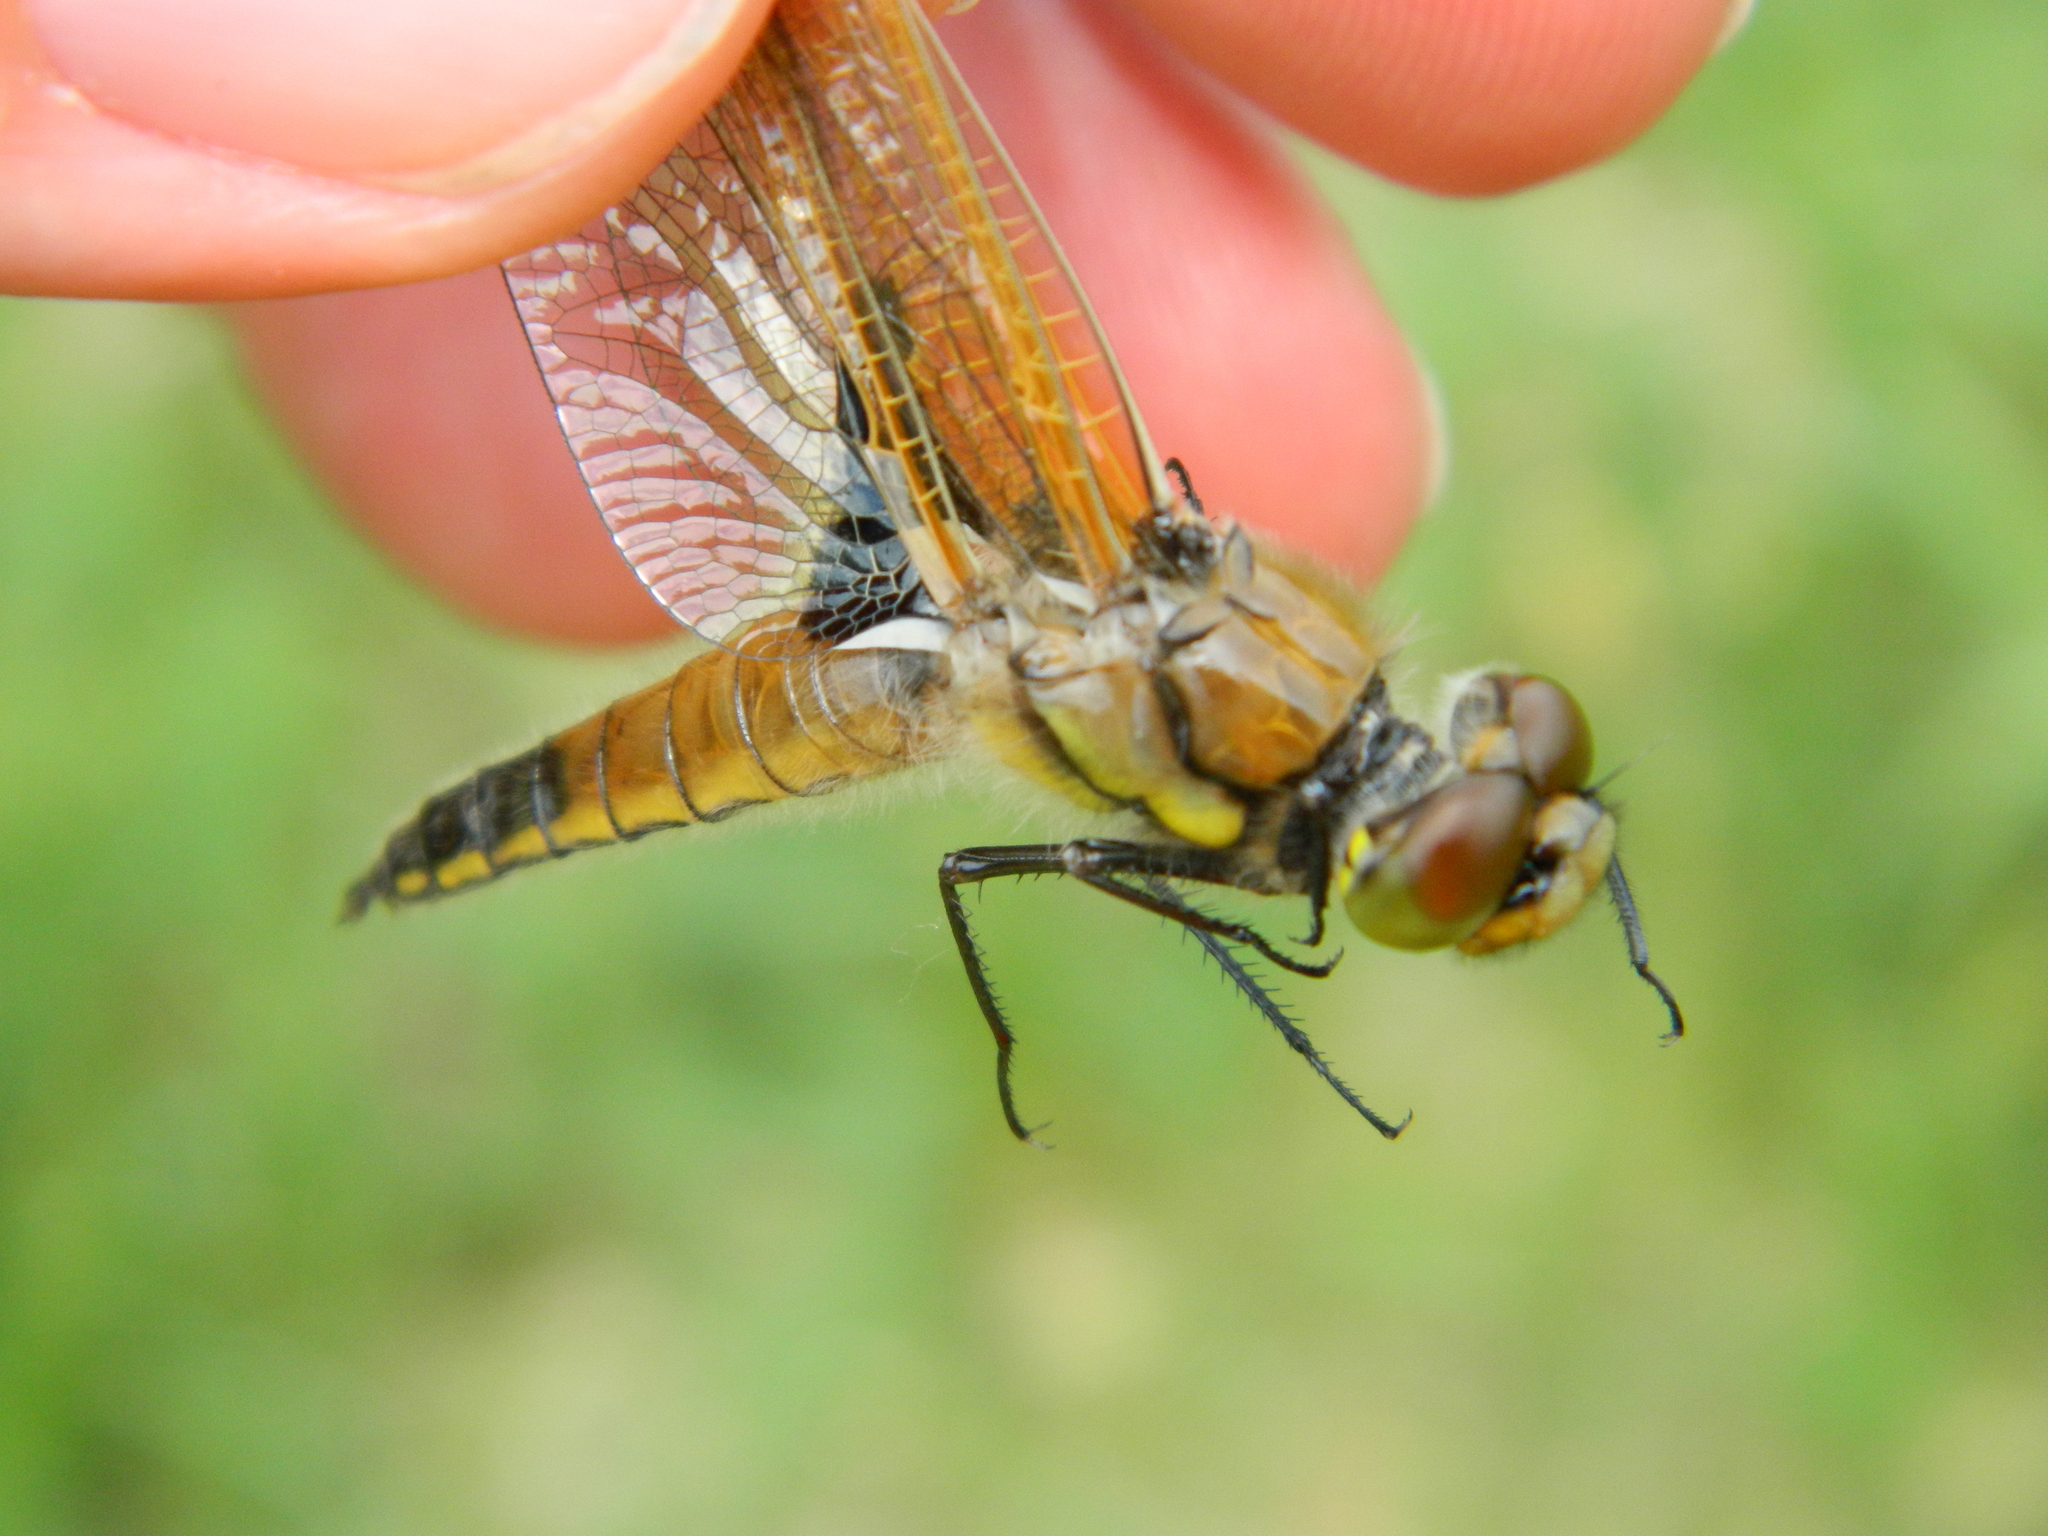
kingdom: Animalia
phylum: Arthropoda
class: Insecta
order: Odonata
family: Libellulidae
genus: Libellula
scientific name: Libellula quadrimaculata
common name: Four-spotted chaser
